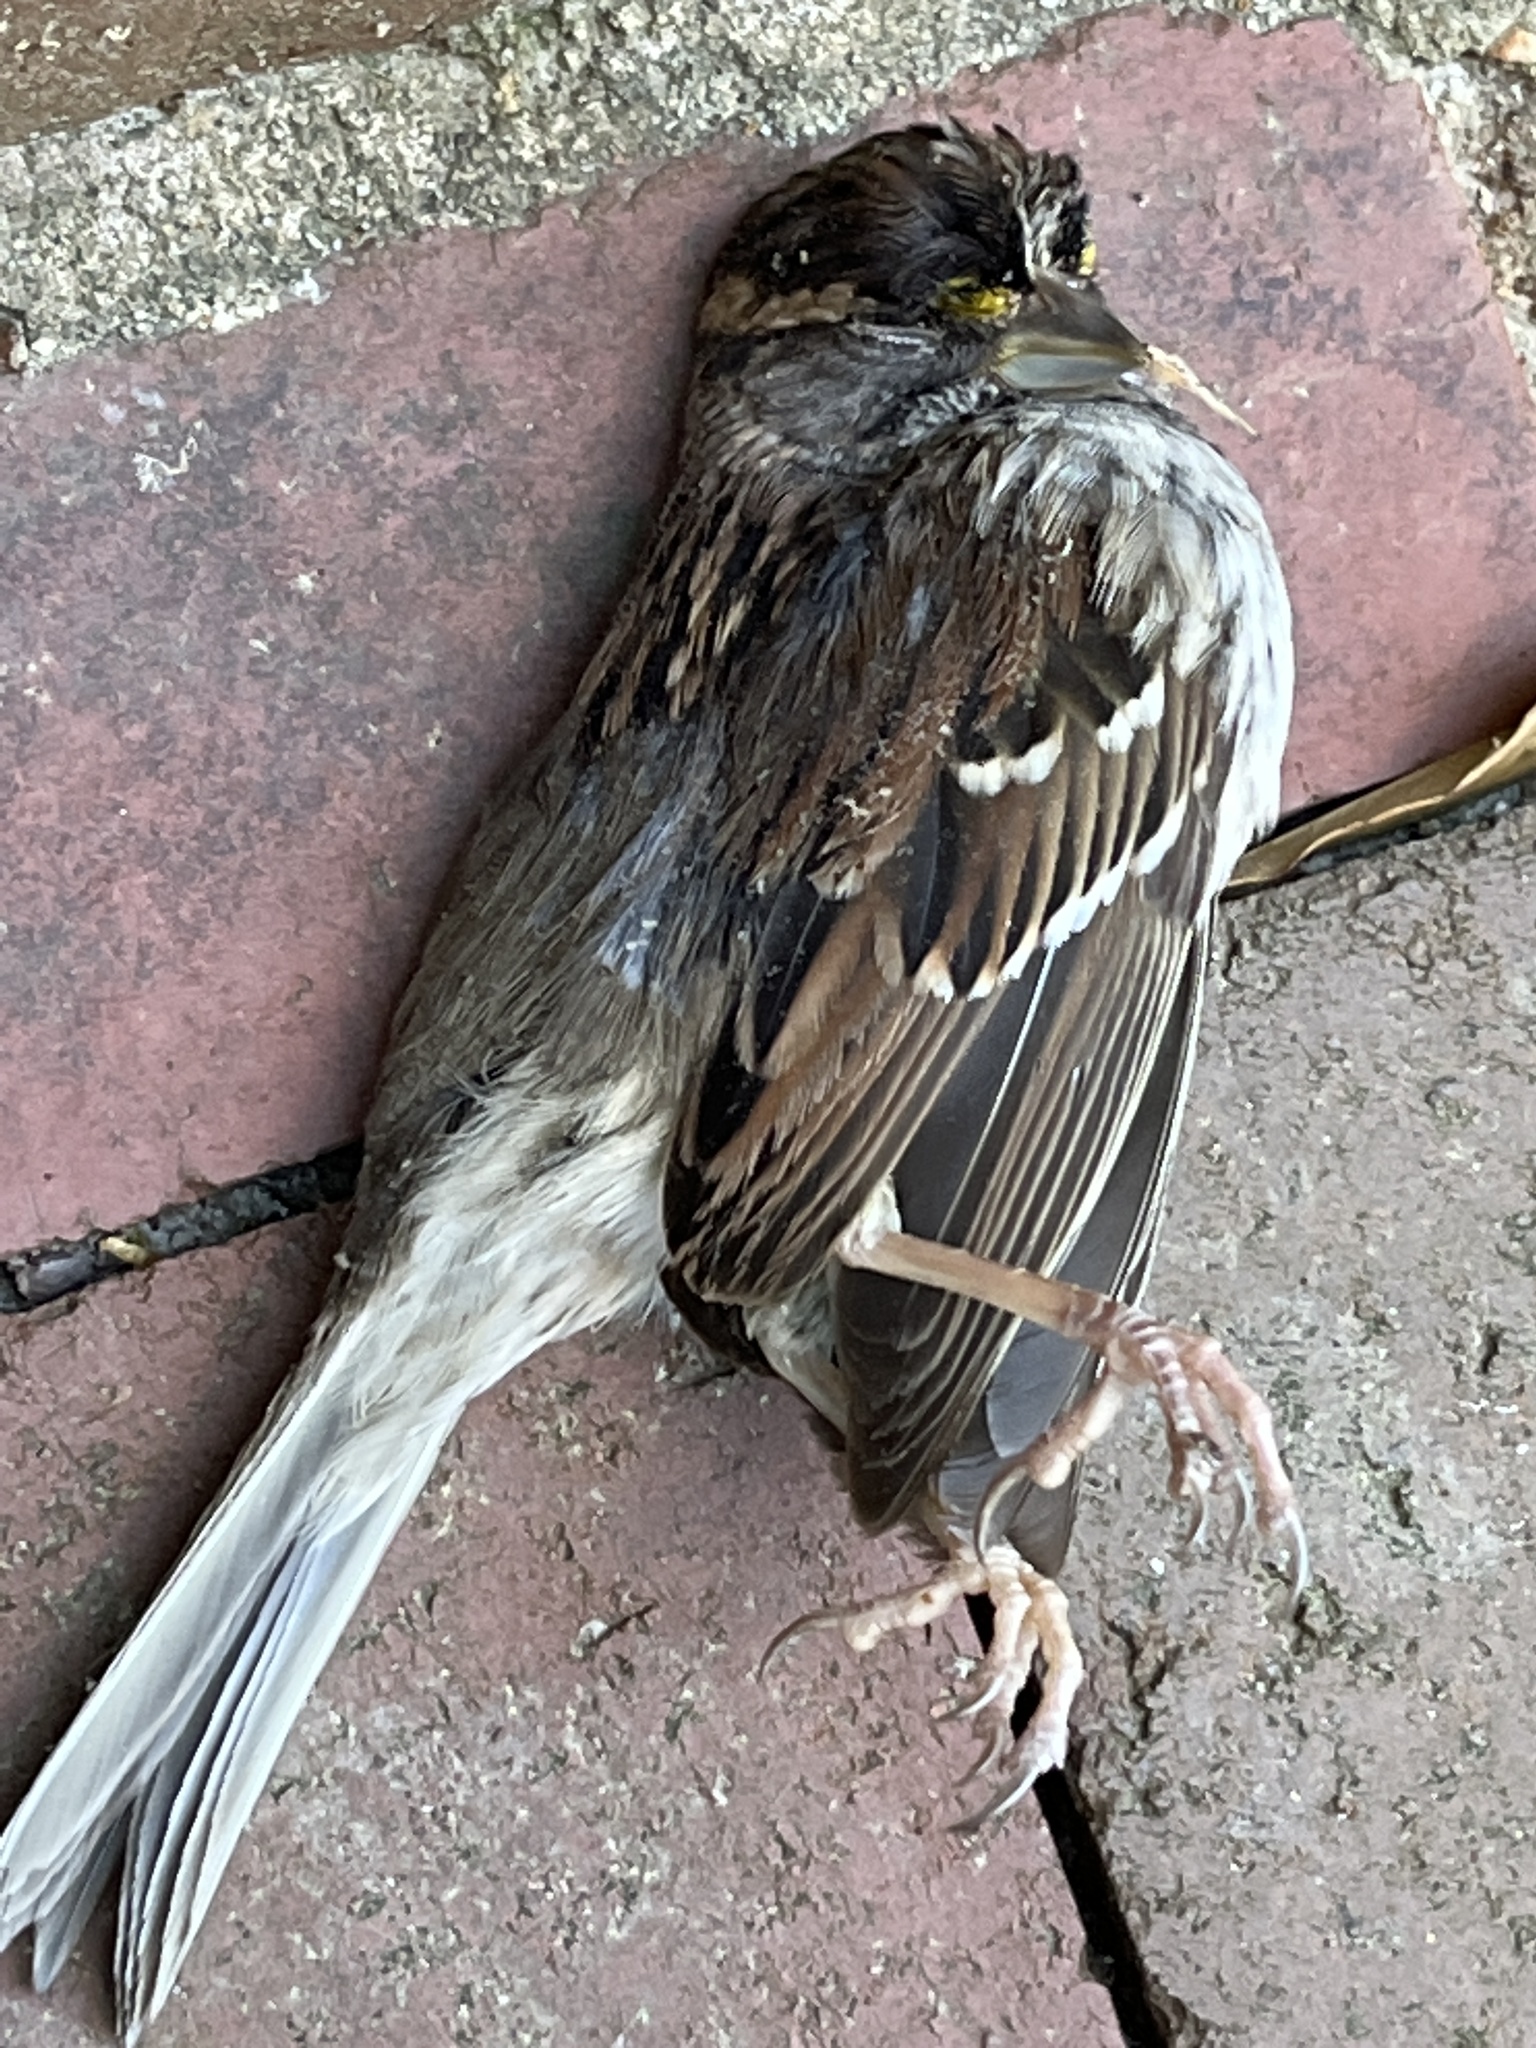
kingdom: Animalia
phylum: Chordata
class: Aves
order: Passeriformes
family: Passerellidae
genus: Zonotrichia
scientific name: Zonotrichia albicollis
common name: White-throated sparrow
